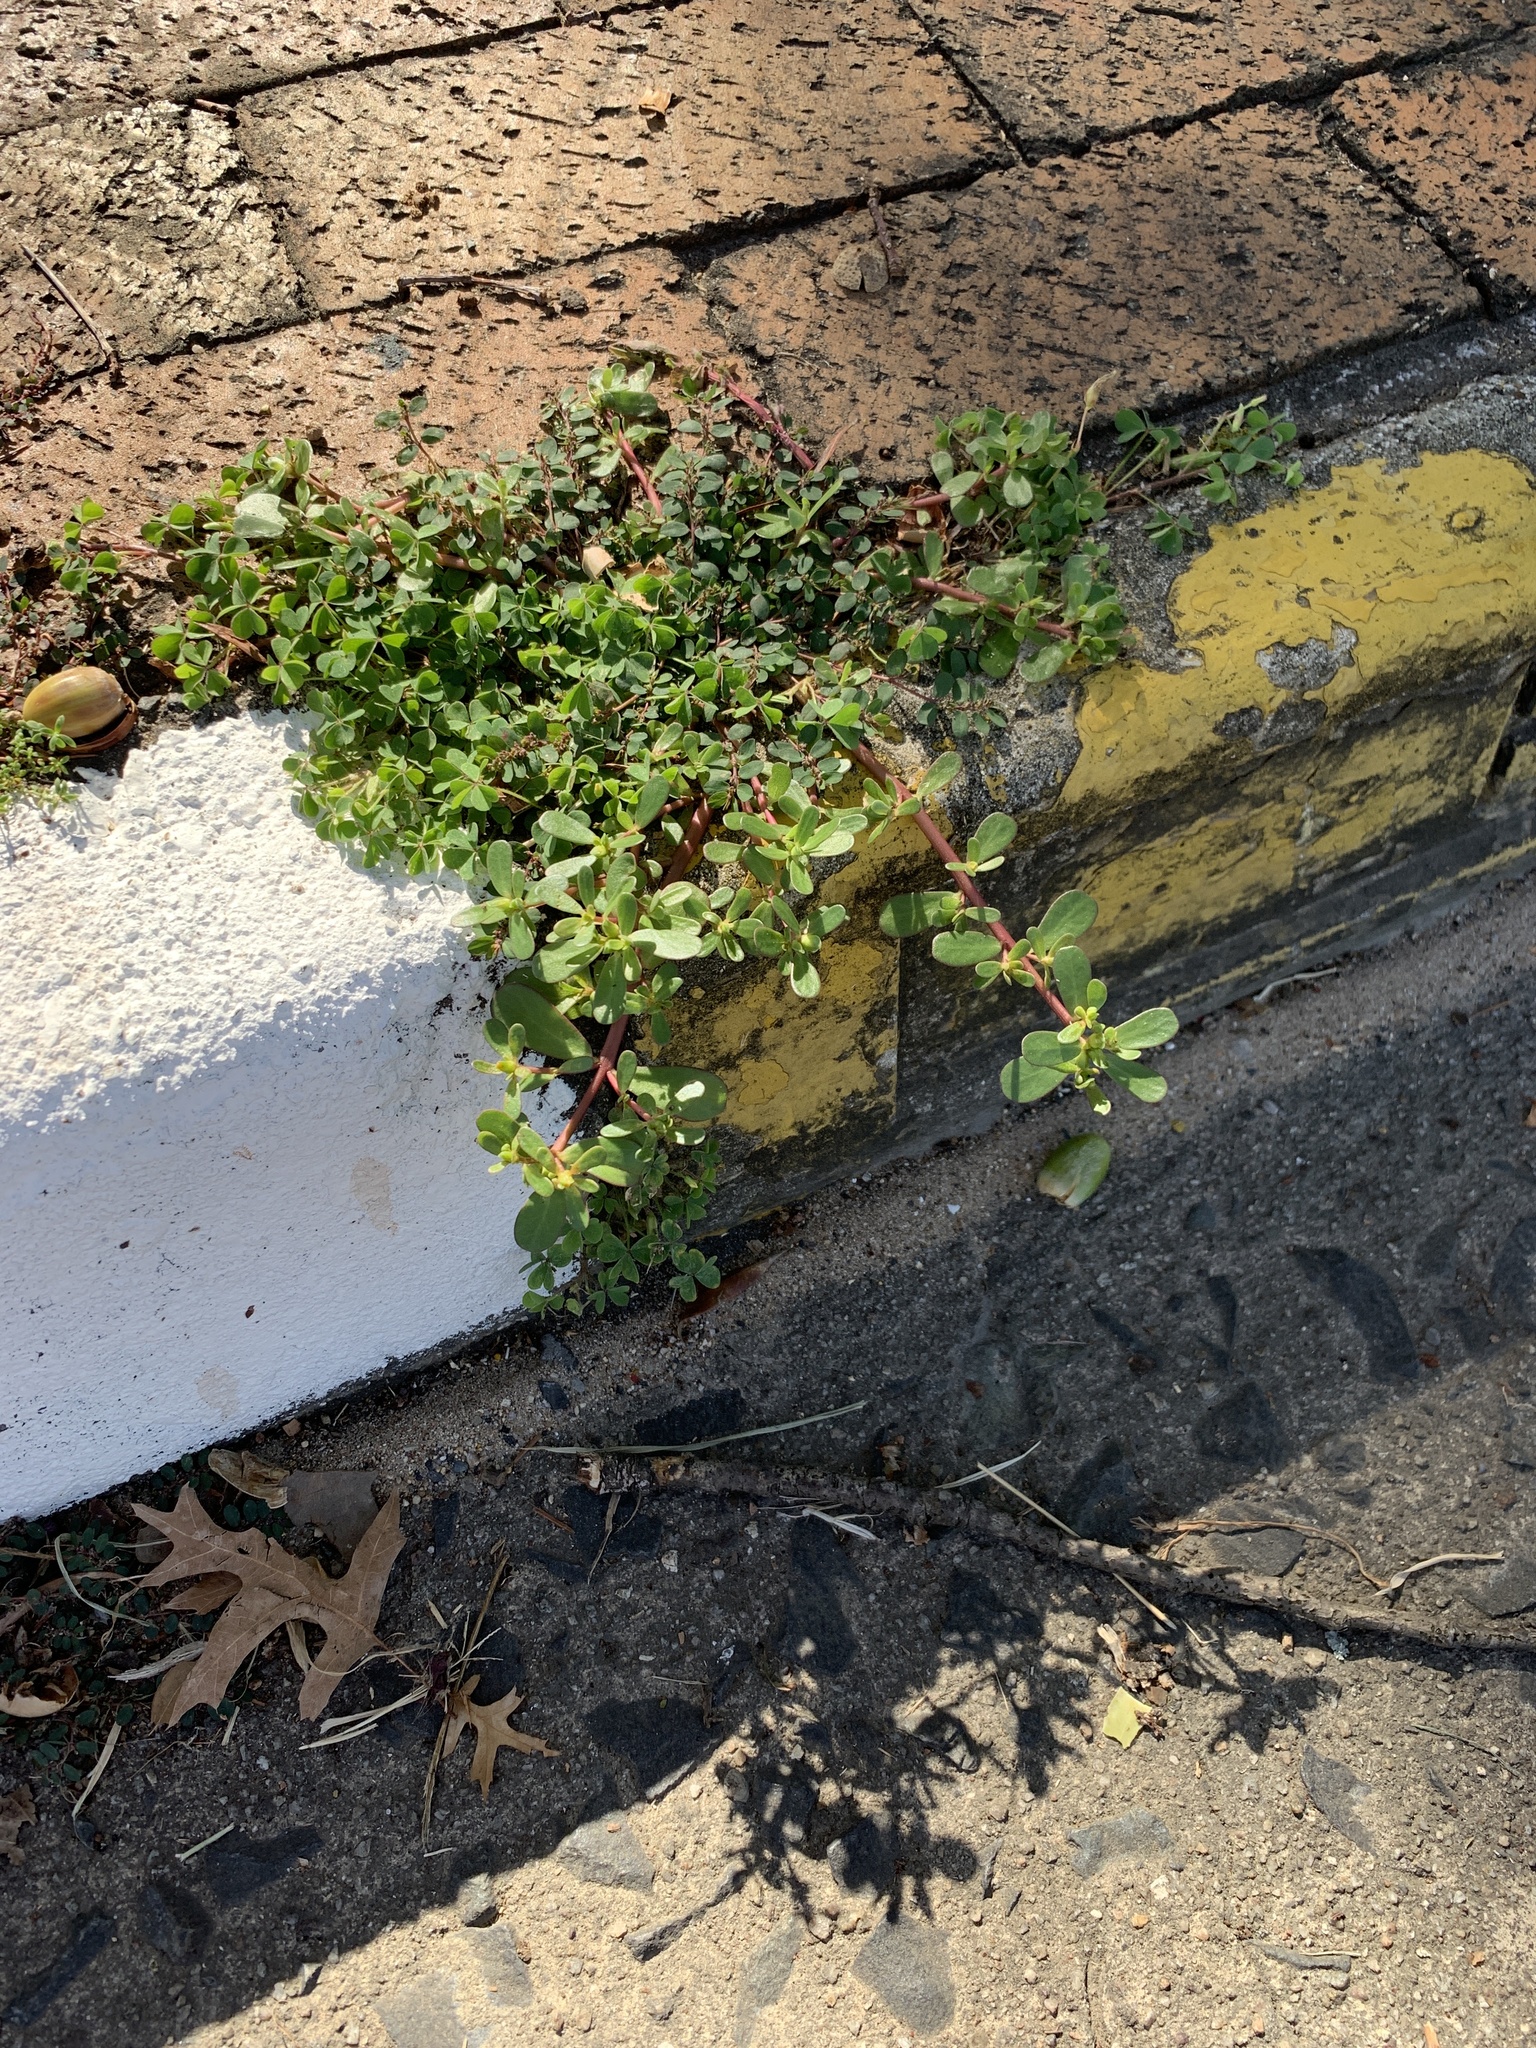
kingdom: Plantae
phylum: Tracheophyta
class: Magnoliopsida
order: Caryophyllales
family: Portulacaceae
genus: Portulaca
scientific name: Portulaca oleracea
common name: Common purslane
